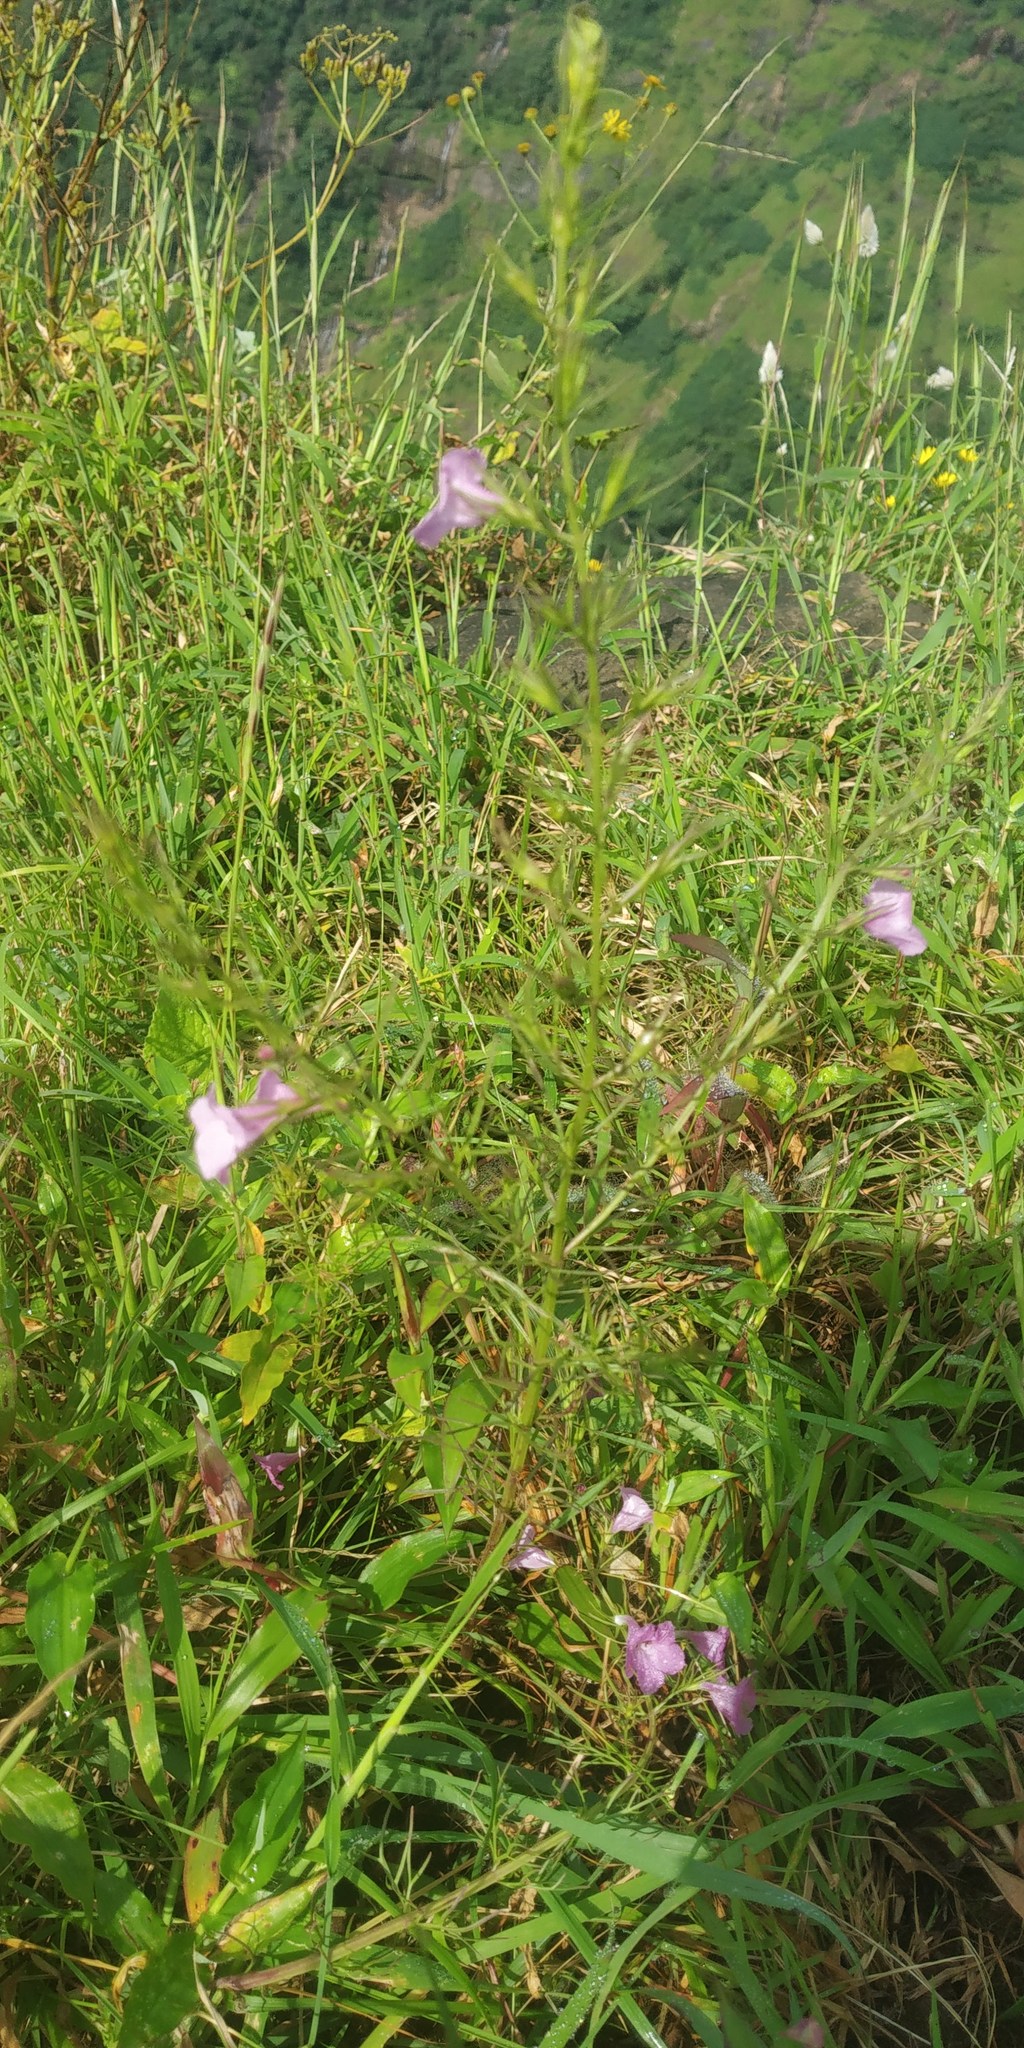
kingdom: Plantae
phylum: Tracheophyta
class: Magnoliopsida
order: Lamiales
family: Orobanchaceae
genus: Parasopubia
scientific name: Parasopubia delphiniifolia
